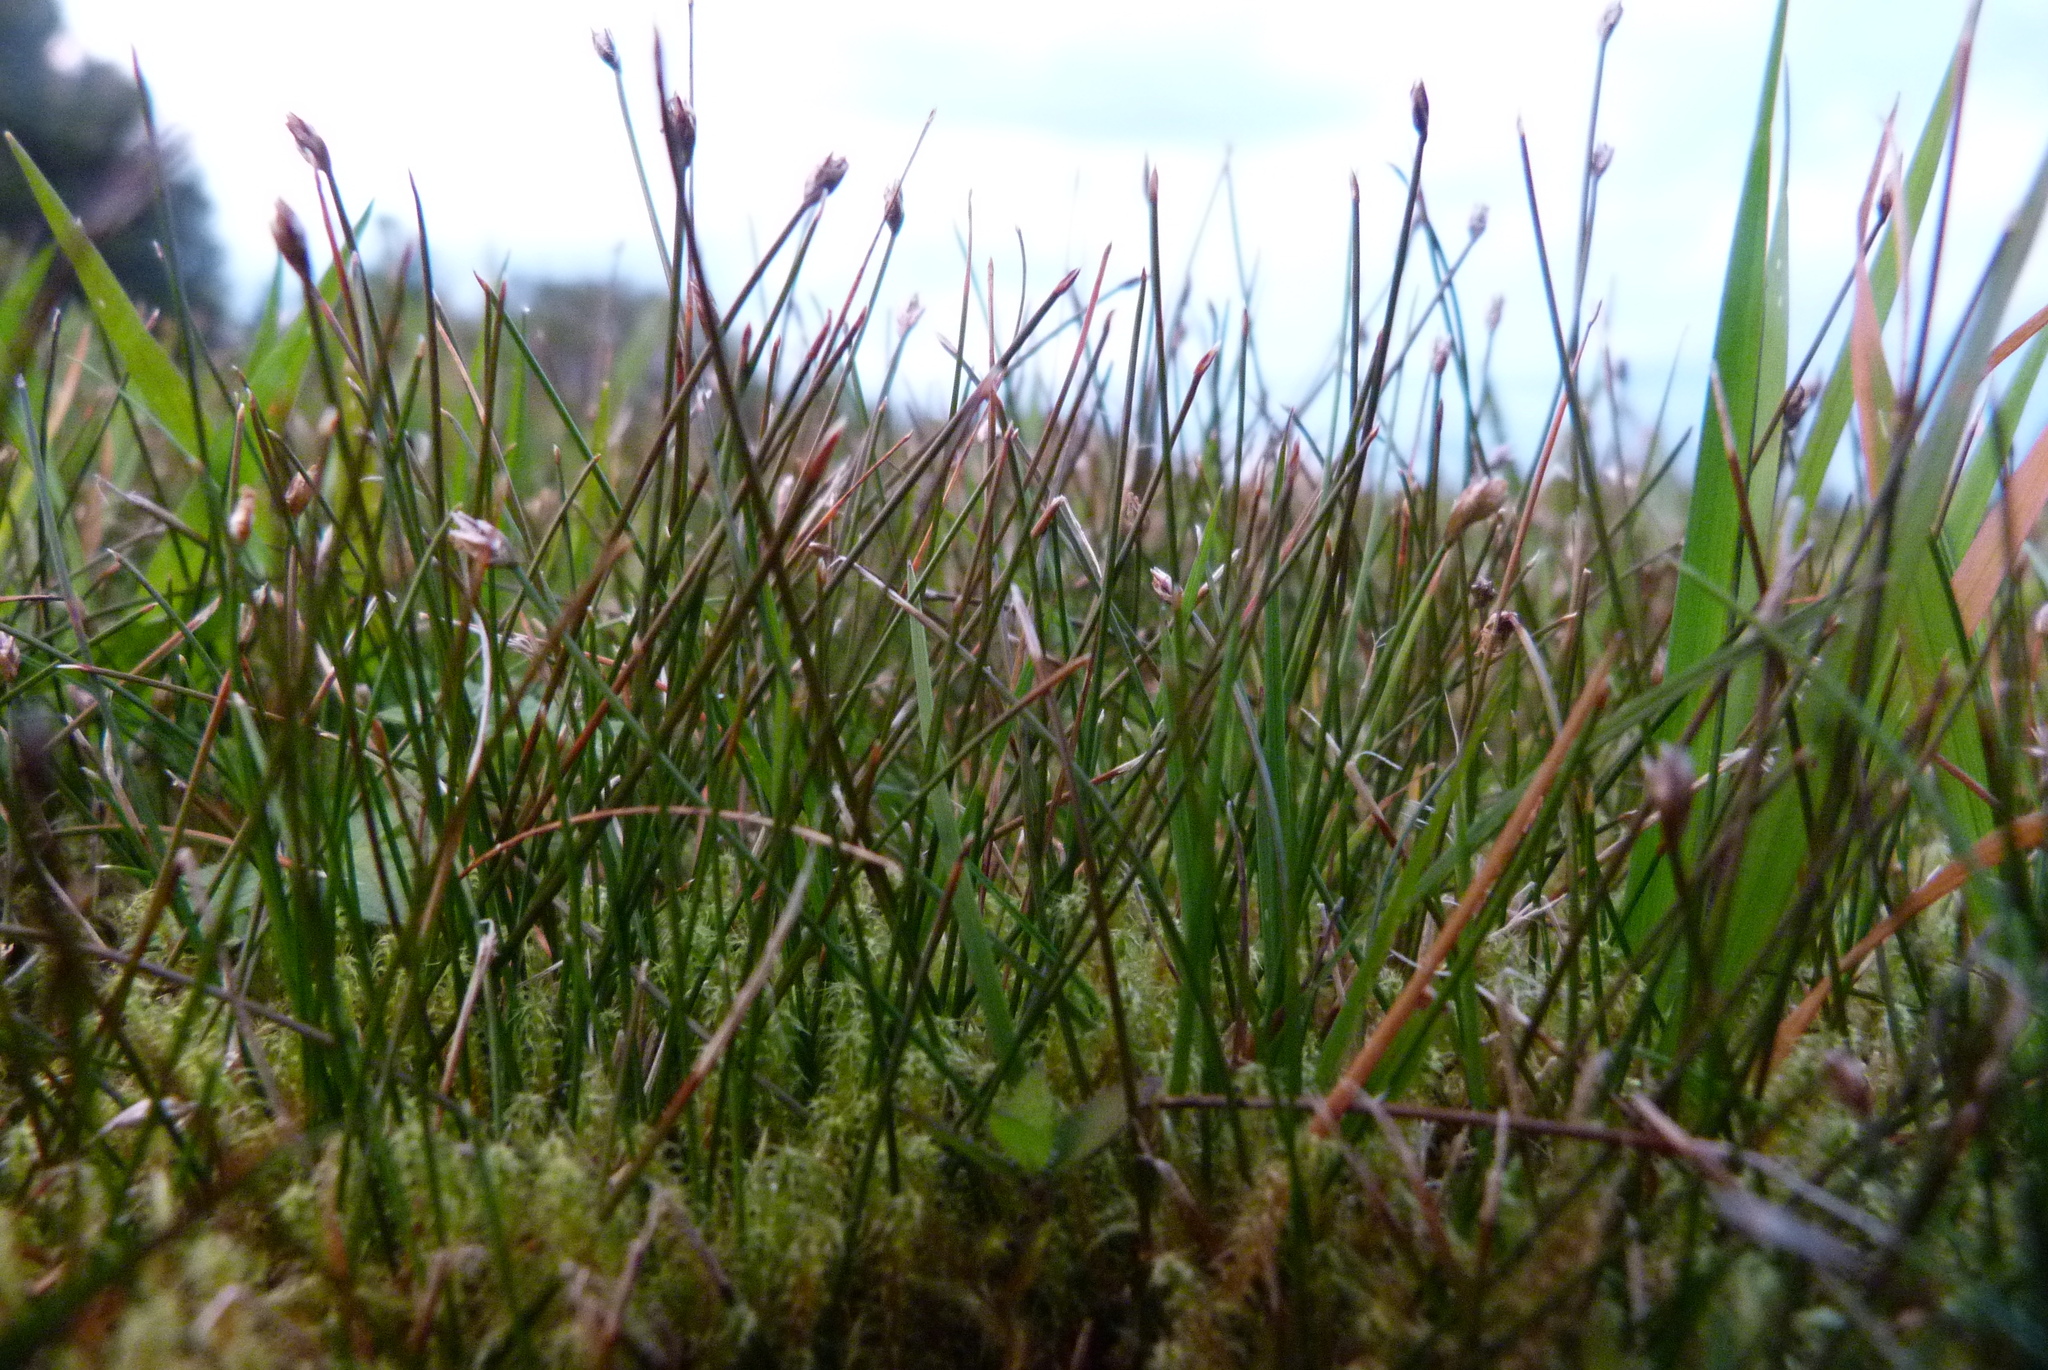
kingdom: Plantae
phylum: Tracheophyta
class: Liliopsida
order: Poales
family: Cyperaceae
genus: Eleocharis
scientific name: Eleocharis gracilis
